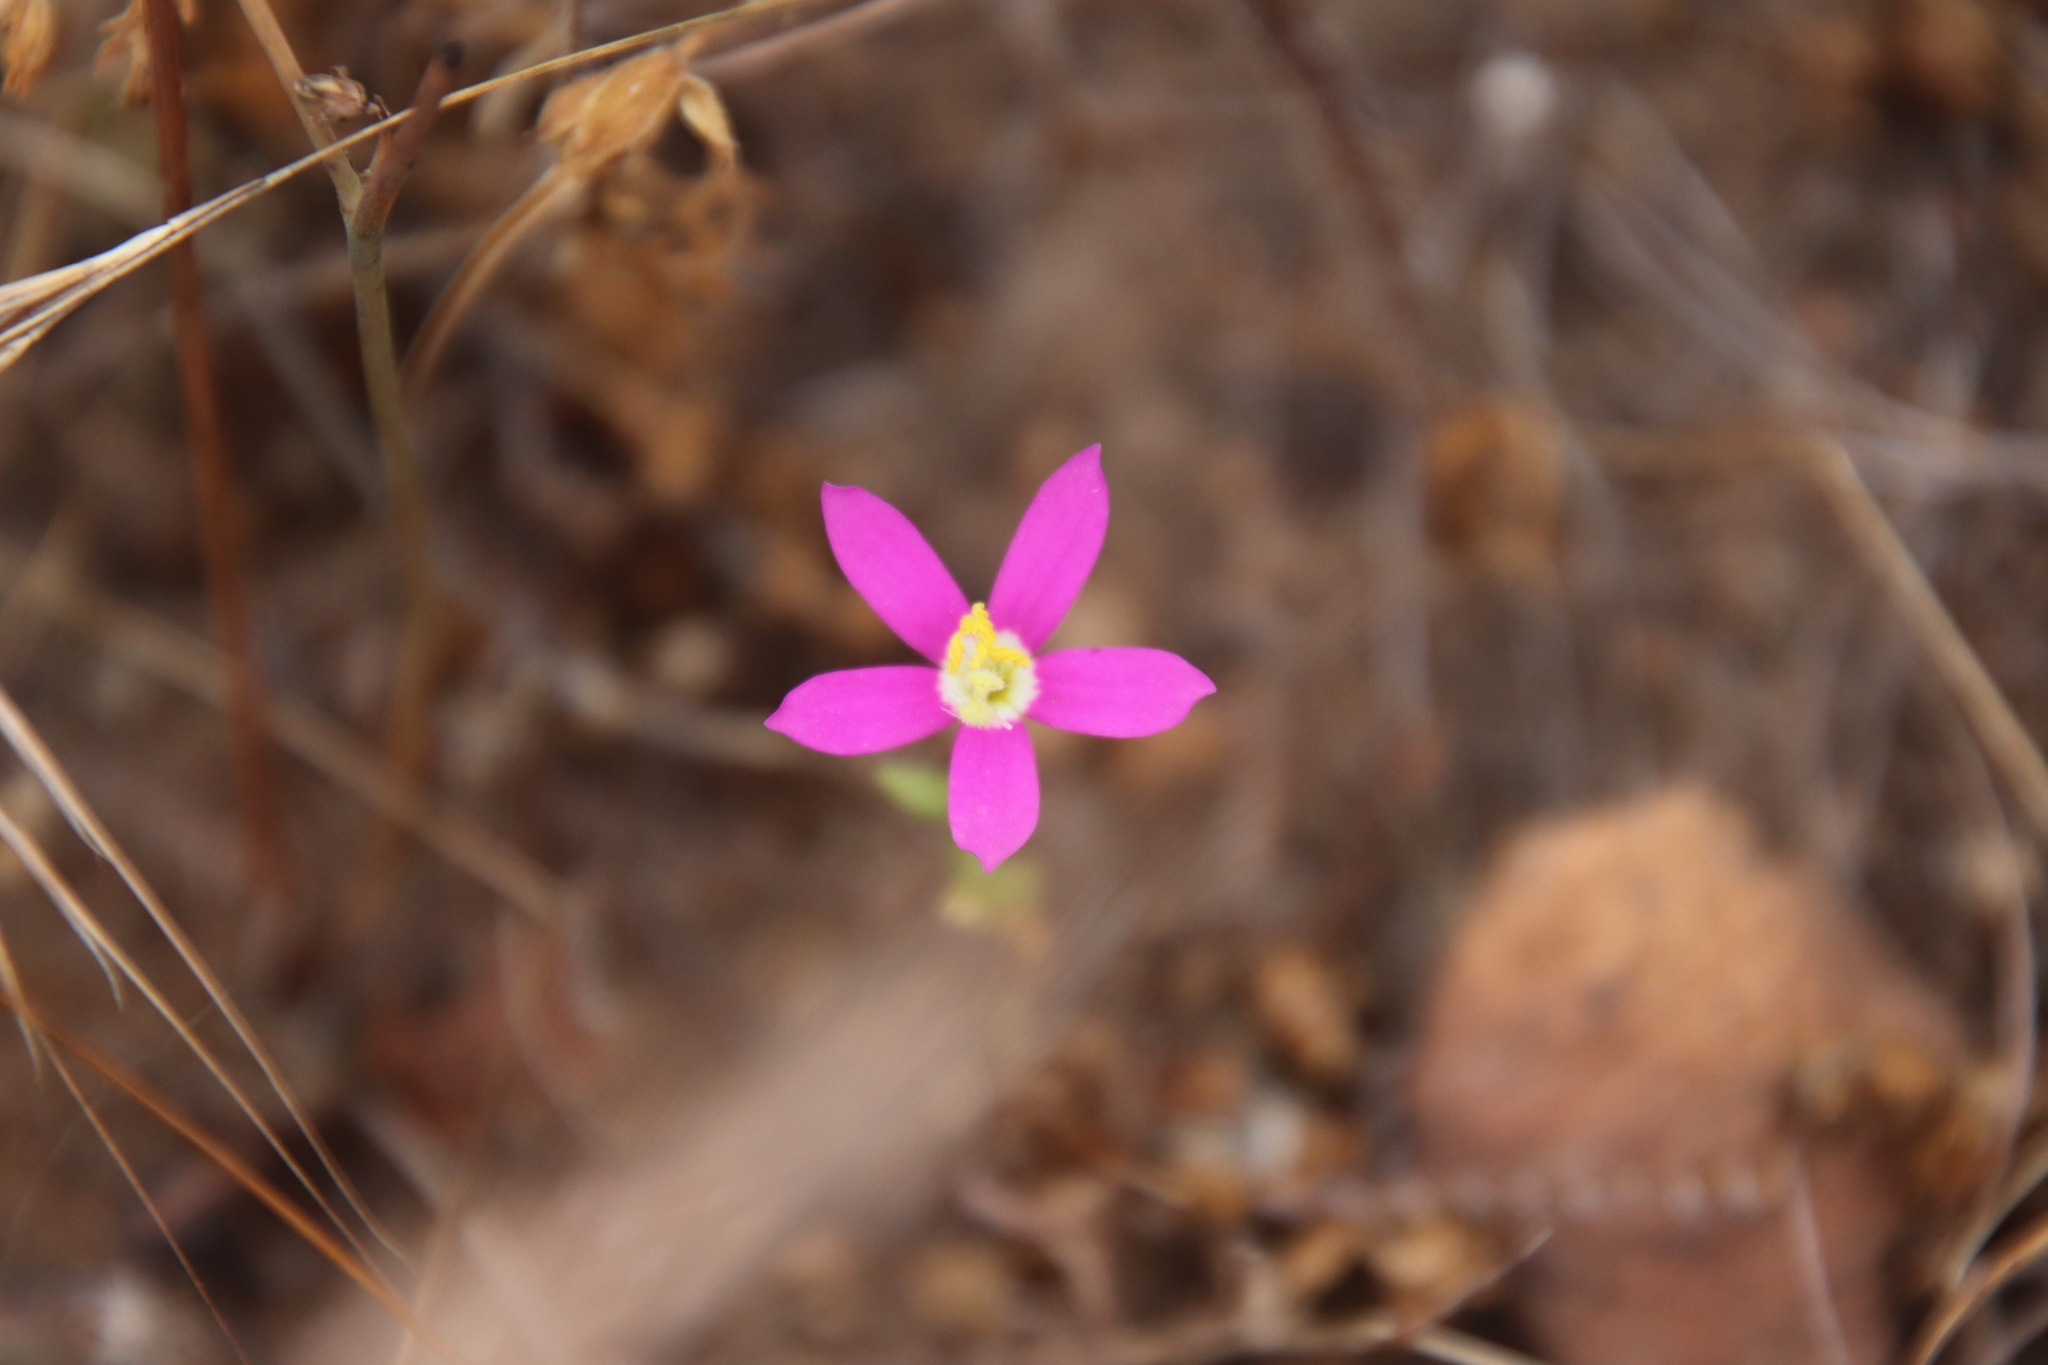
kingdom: Plantae
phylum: Tracheophyta
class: Magnoliopsida
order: Gentianales
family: Gentianaceae
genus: Zeltnera
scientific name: Zeltnera venusta
